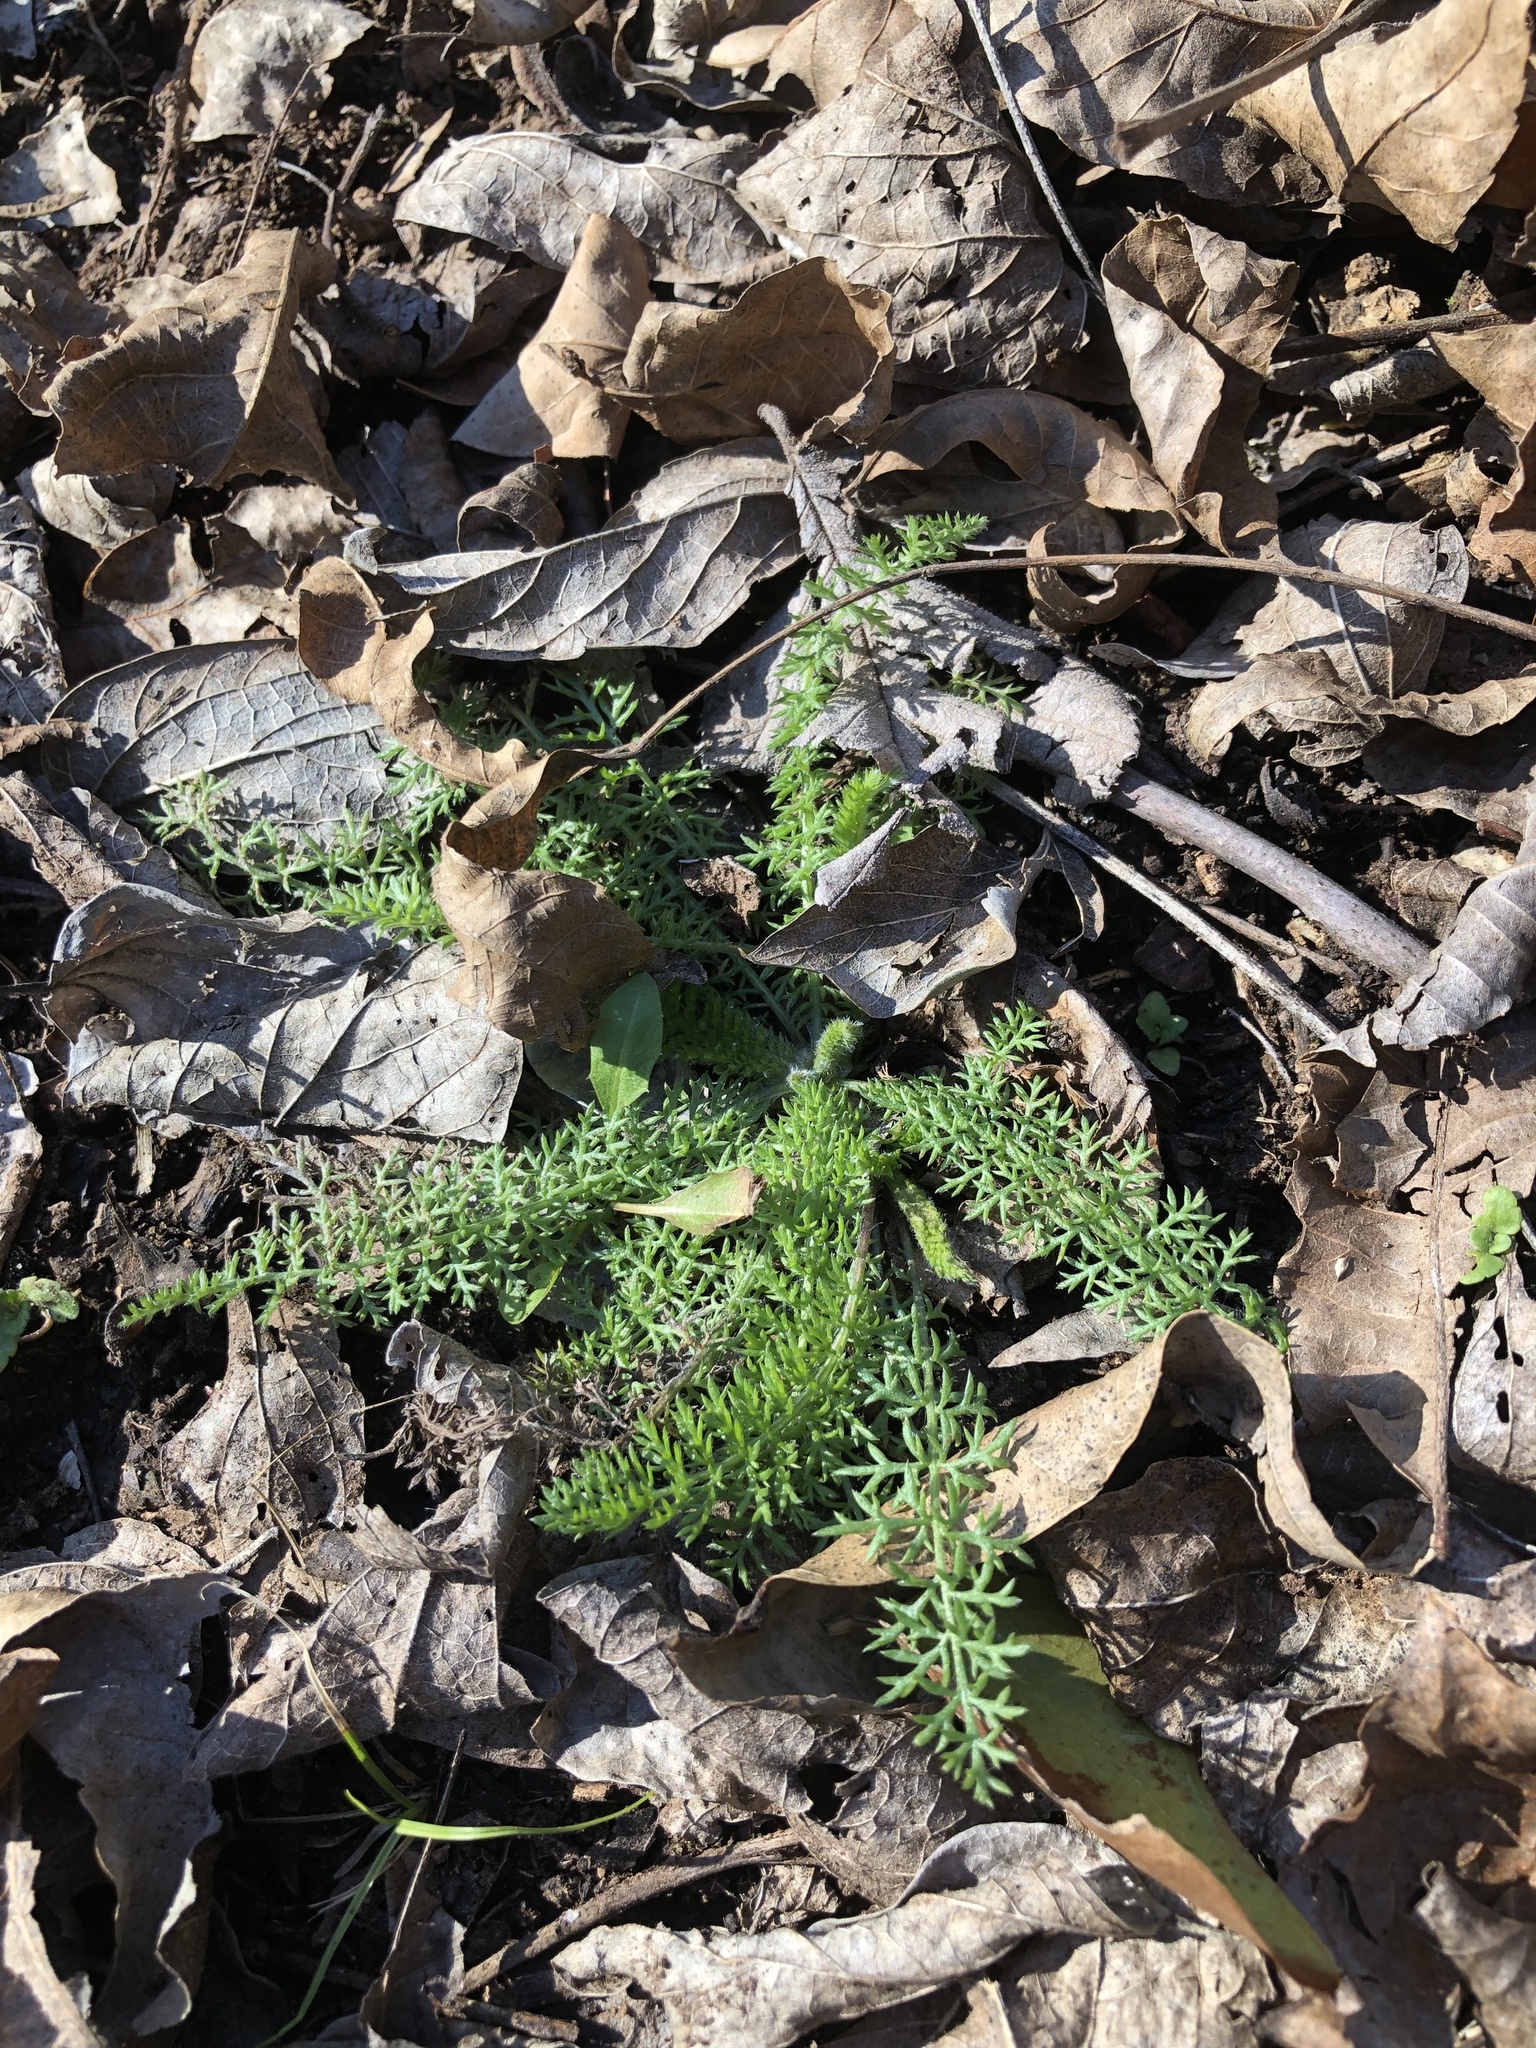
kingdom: Plantae
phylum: Tracheophyta
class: Magnoliopsida
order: Asterales
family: Asteraceae
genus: Achillea
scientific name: Achillea millefolium
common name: Yarrow
